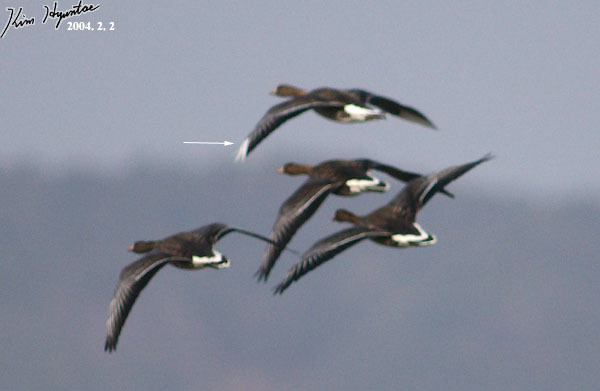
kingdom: Animalia
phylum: Chordata
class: Aves
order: Anseriformes
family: Anatidae
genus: Anser
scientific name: Anser albifrons
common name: Greater white-fronted goose
